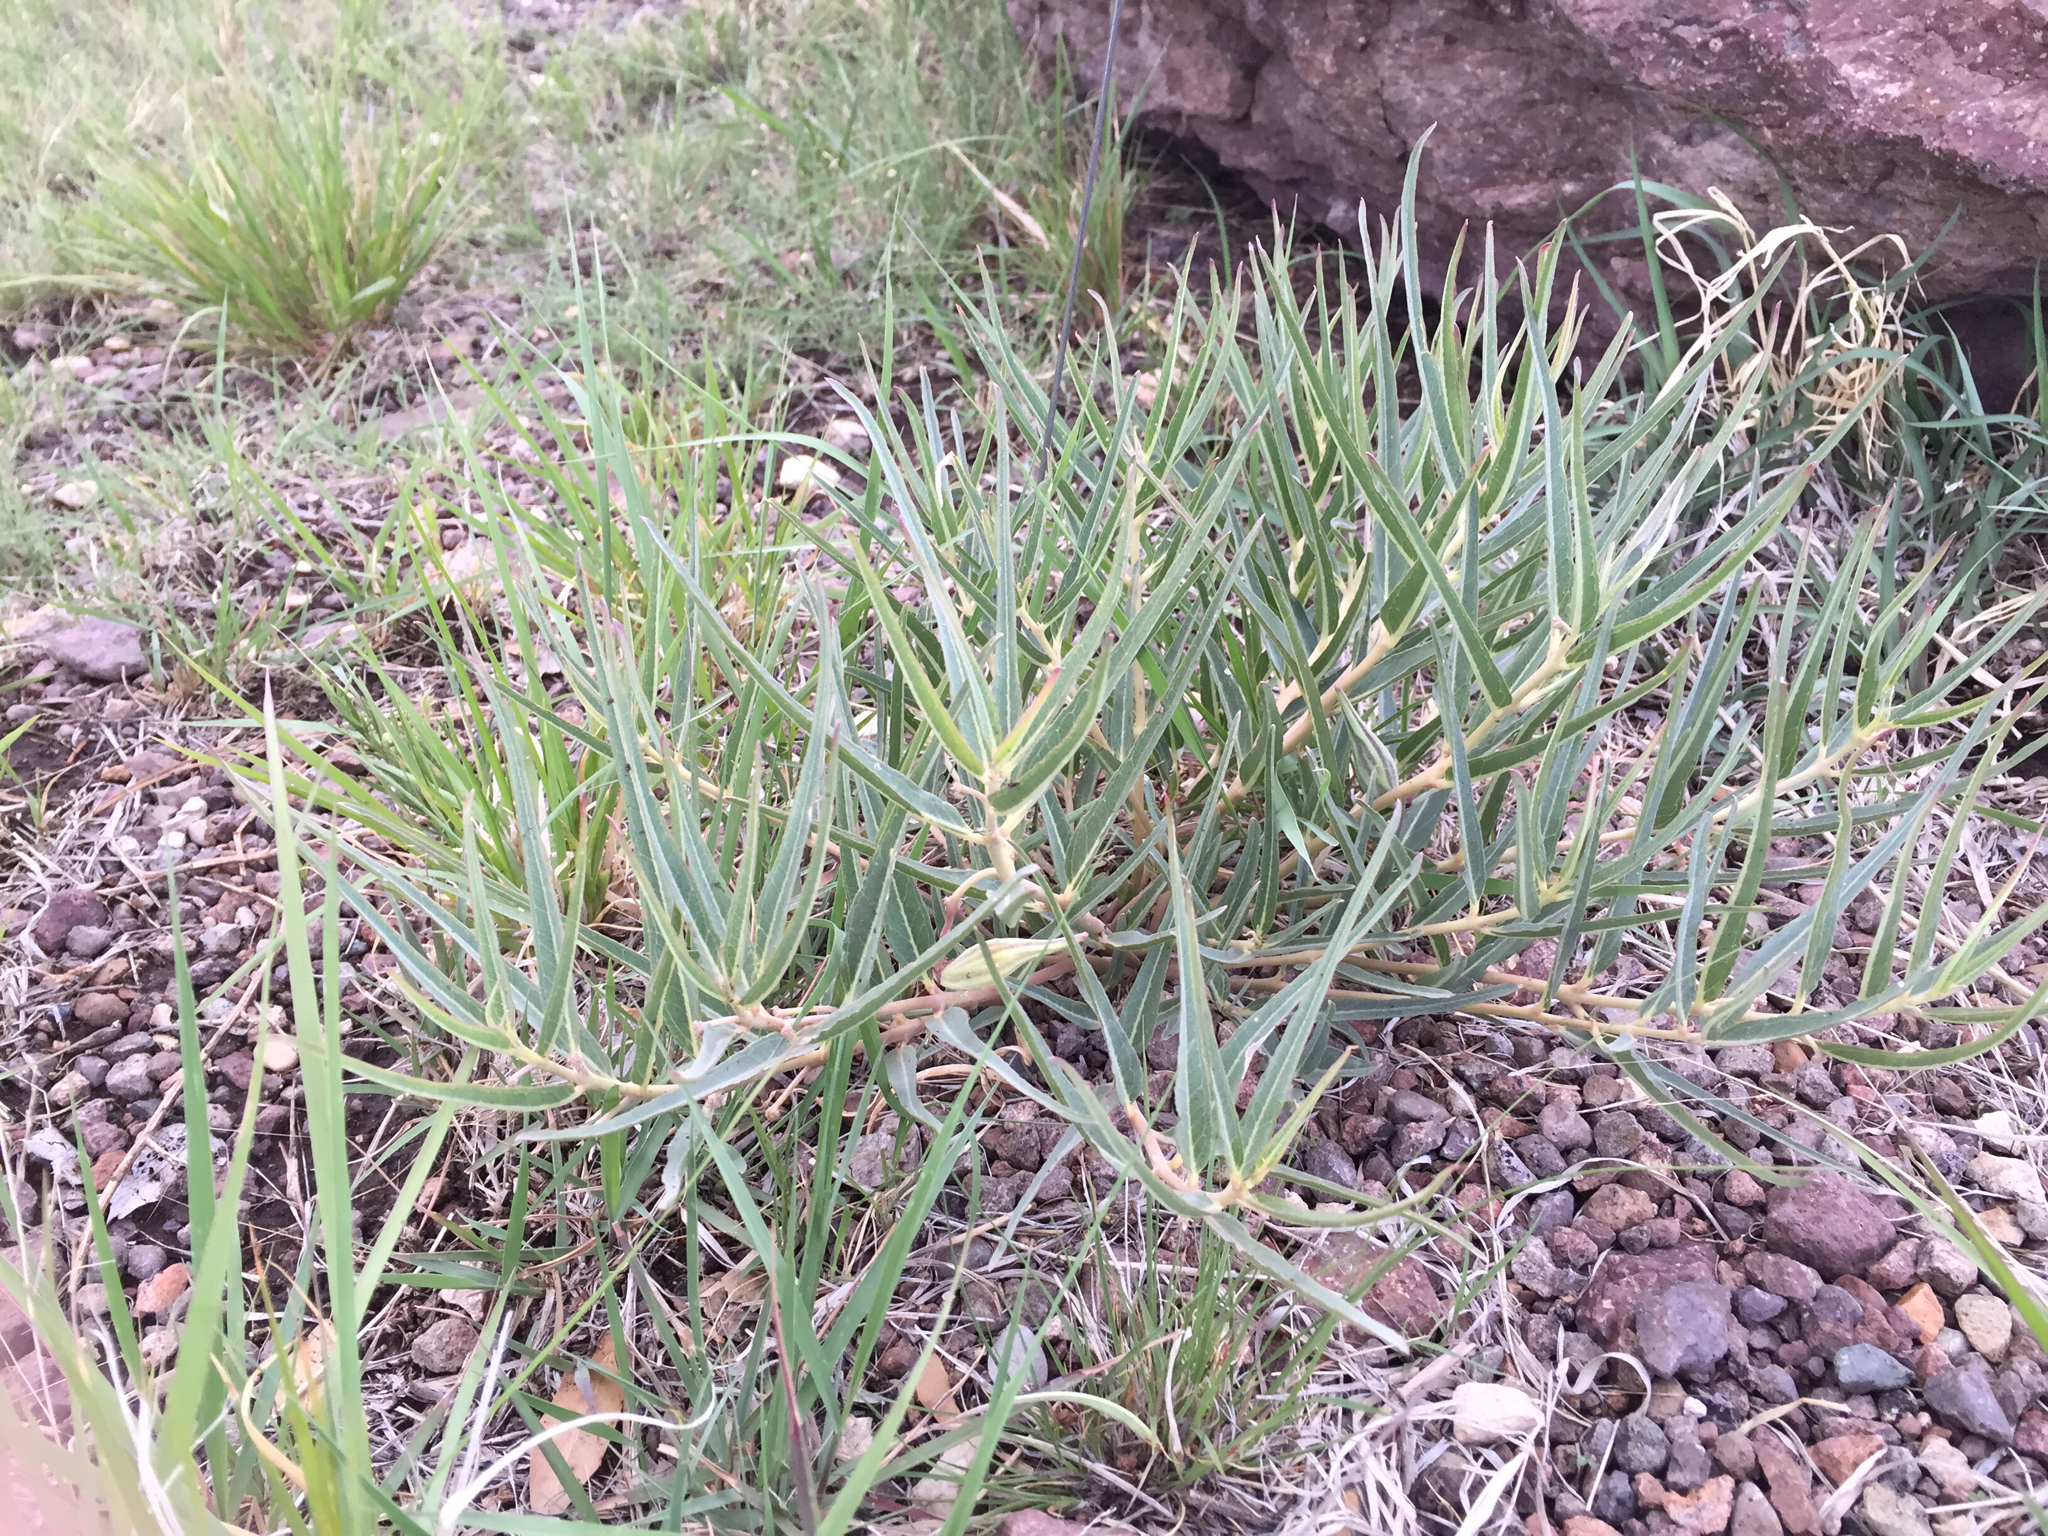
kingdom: Plantae
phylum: Tracheophyta
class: Magnoliopsida
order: Gentianales
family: Apocynaceae
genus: Asclepias
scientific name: Asclepias brachystephana
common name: Shortcrown milkweed
